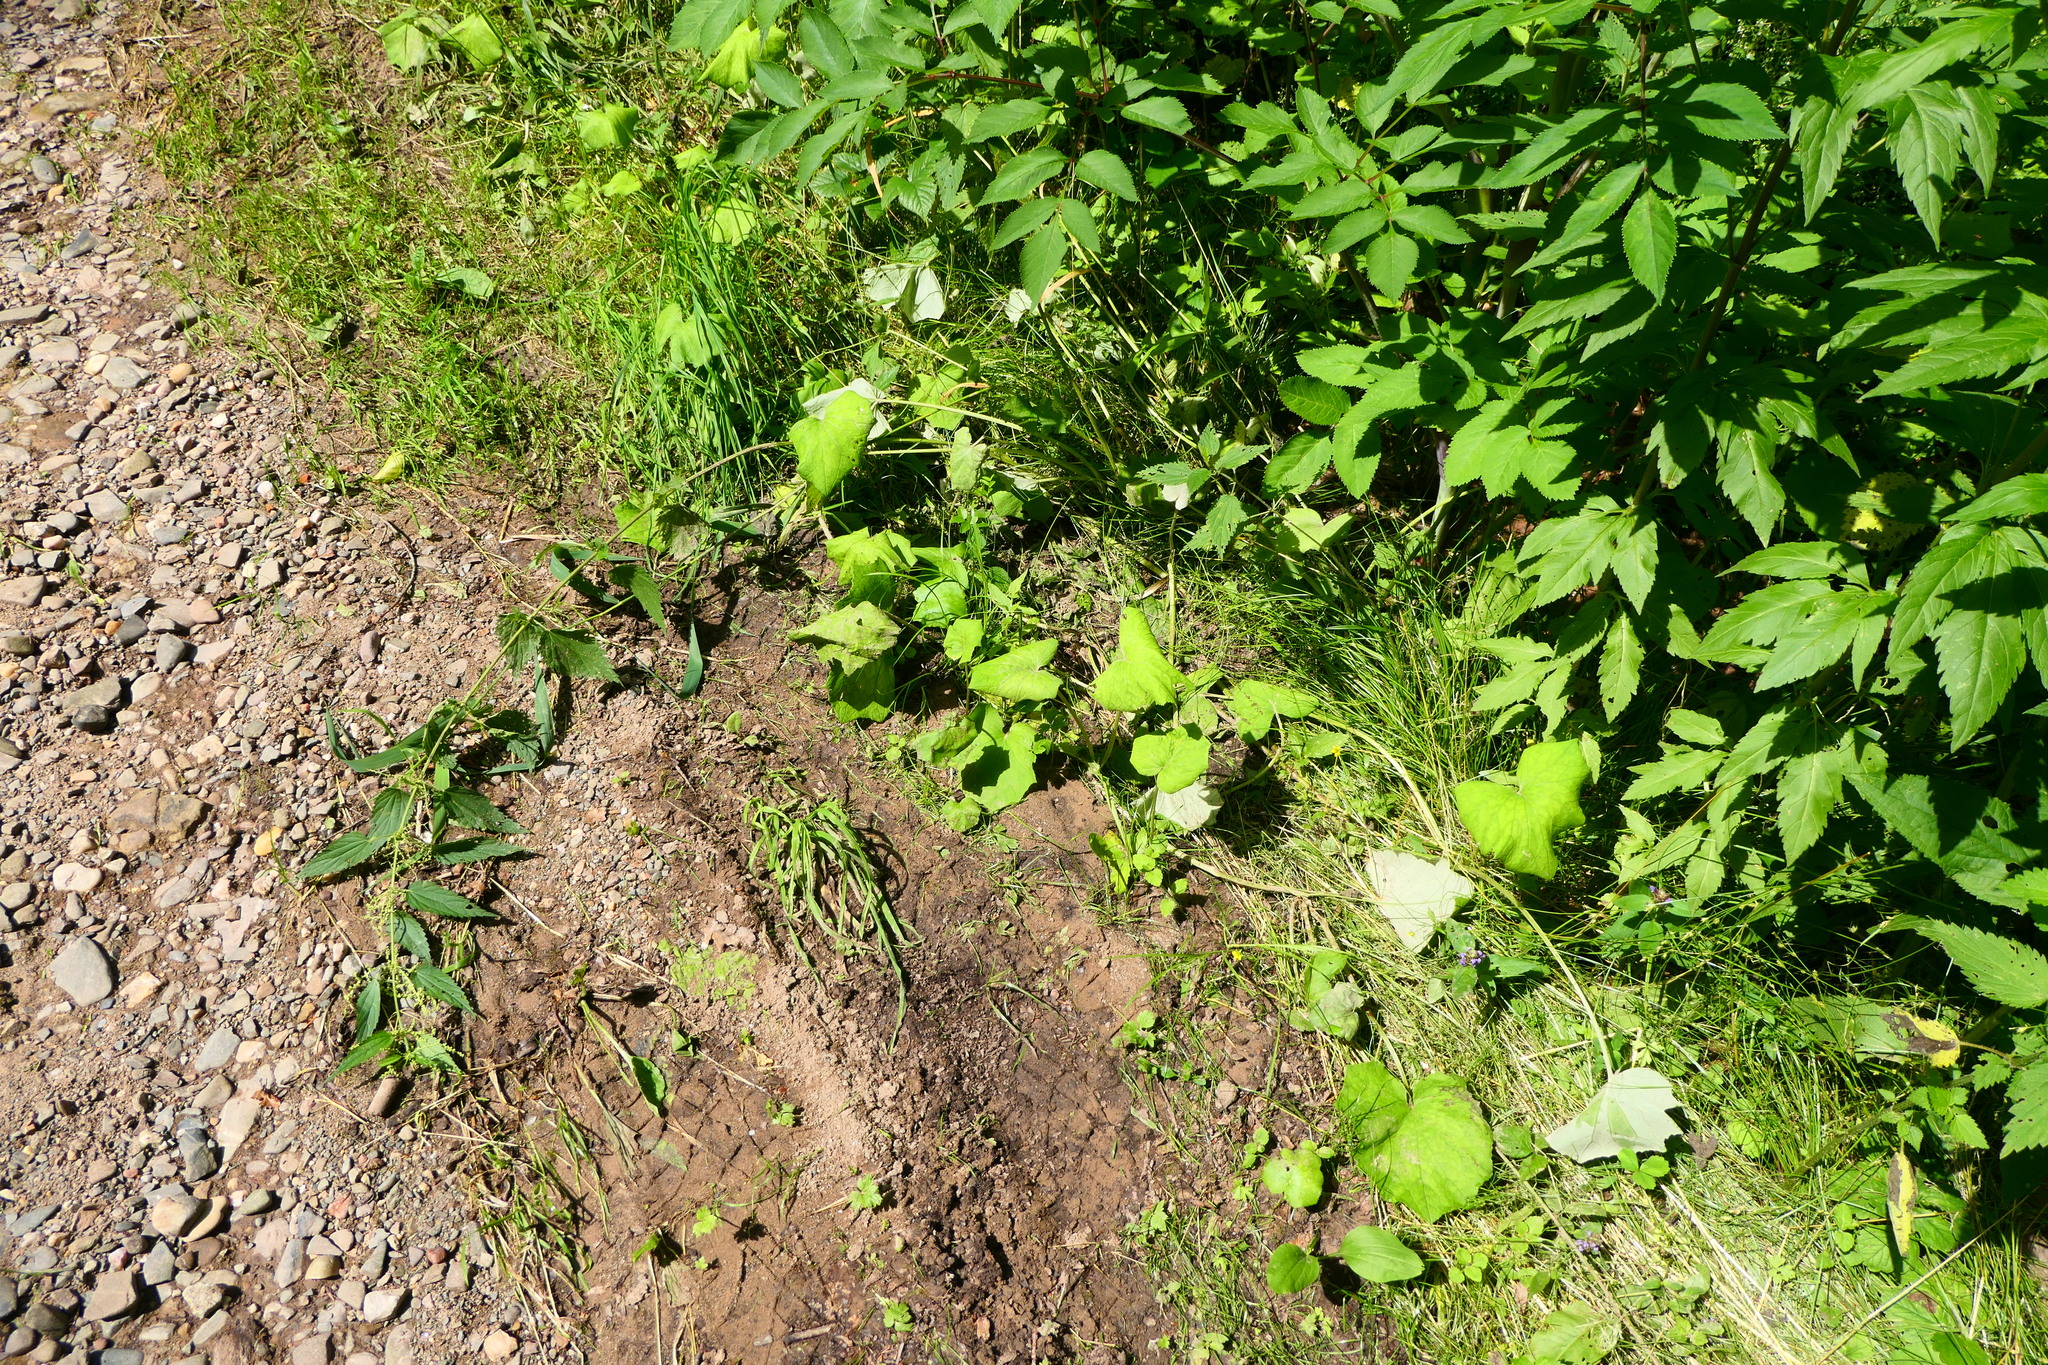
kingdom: Plantae
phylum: Tracheophyta
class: Magnoliopsida
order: Asterales
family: Asteraceae
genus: Tussilago
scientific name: Tussilago farfara
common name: Coltsfoot
